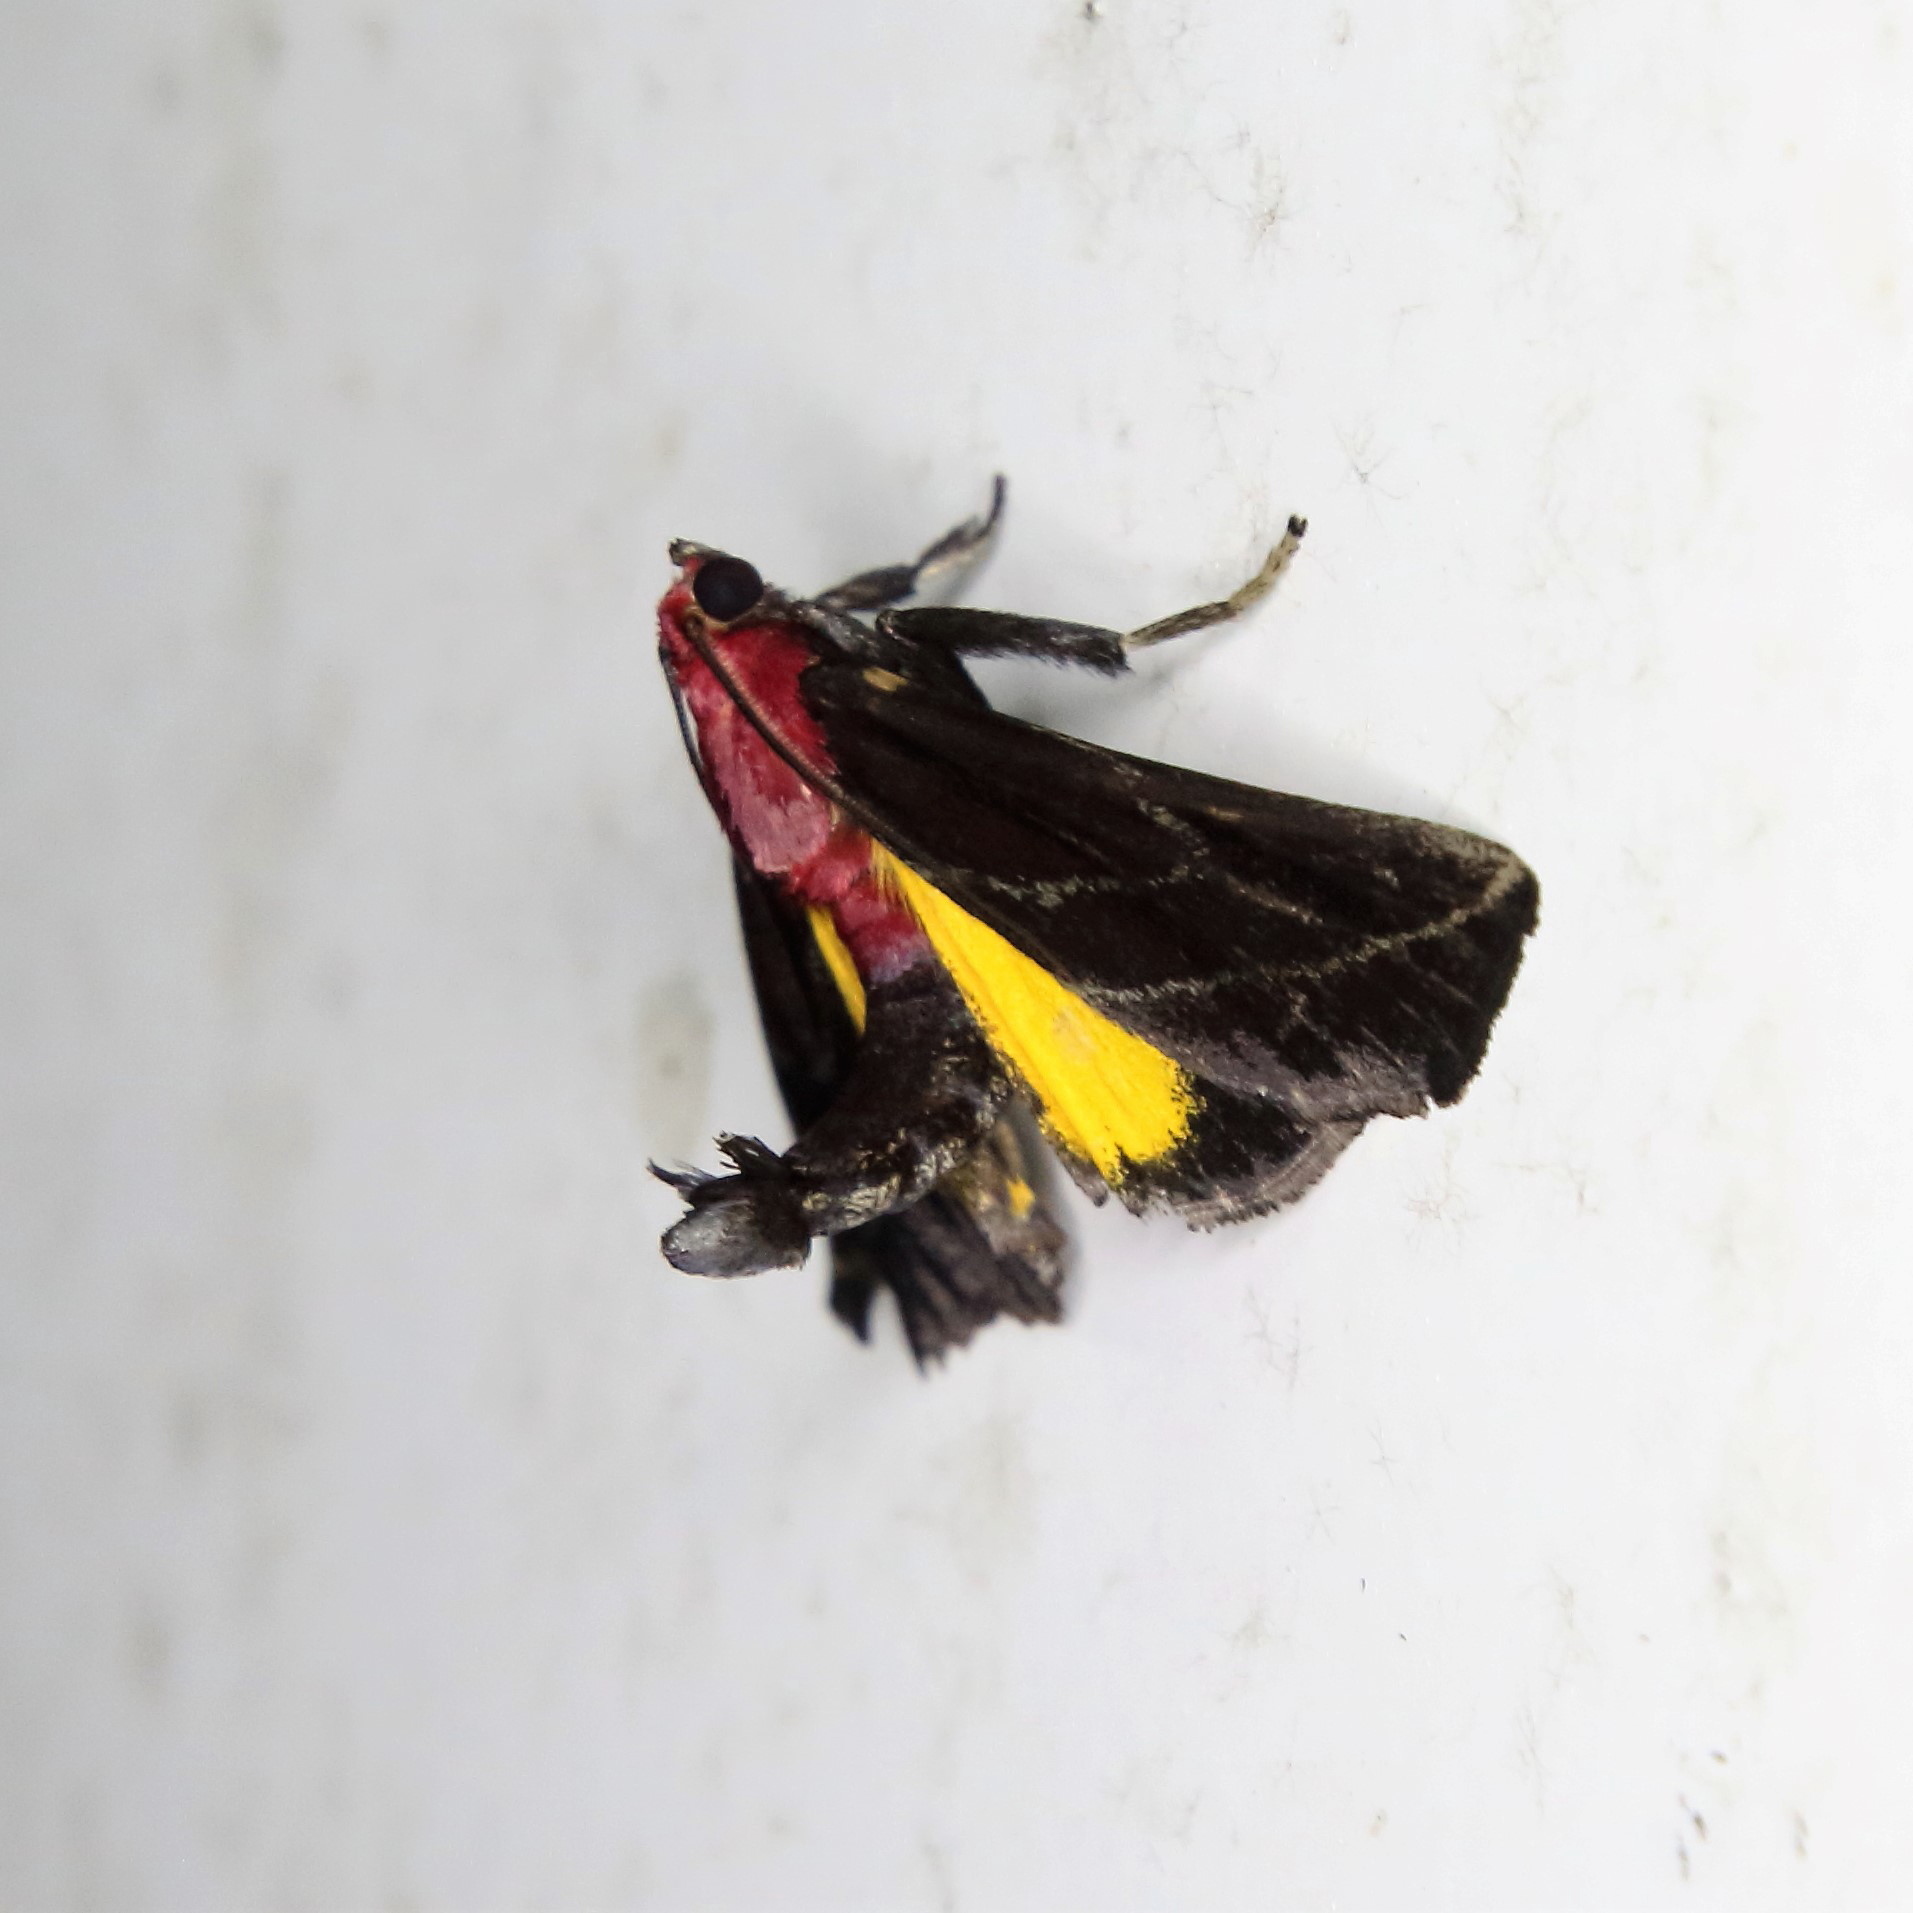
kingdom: Animalia
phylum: Arthropoda
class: Insecta
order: Lepidoptera
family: Pyralidae
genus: Toccolosida
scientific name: Toccolosida rubriceps
